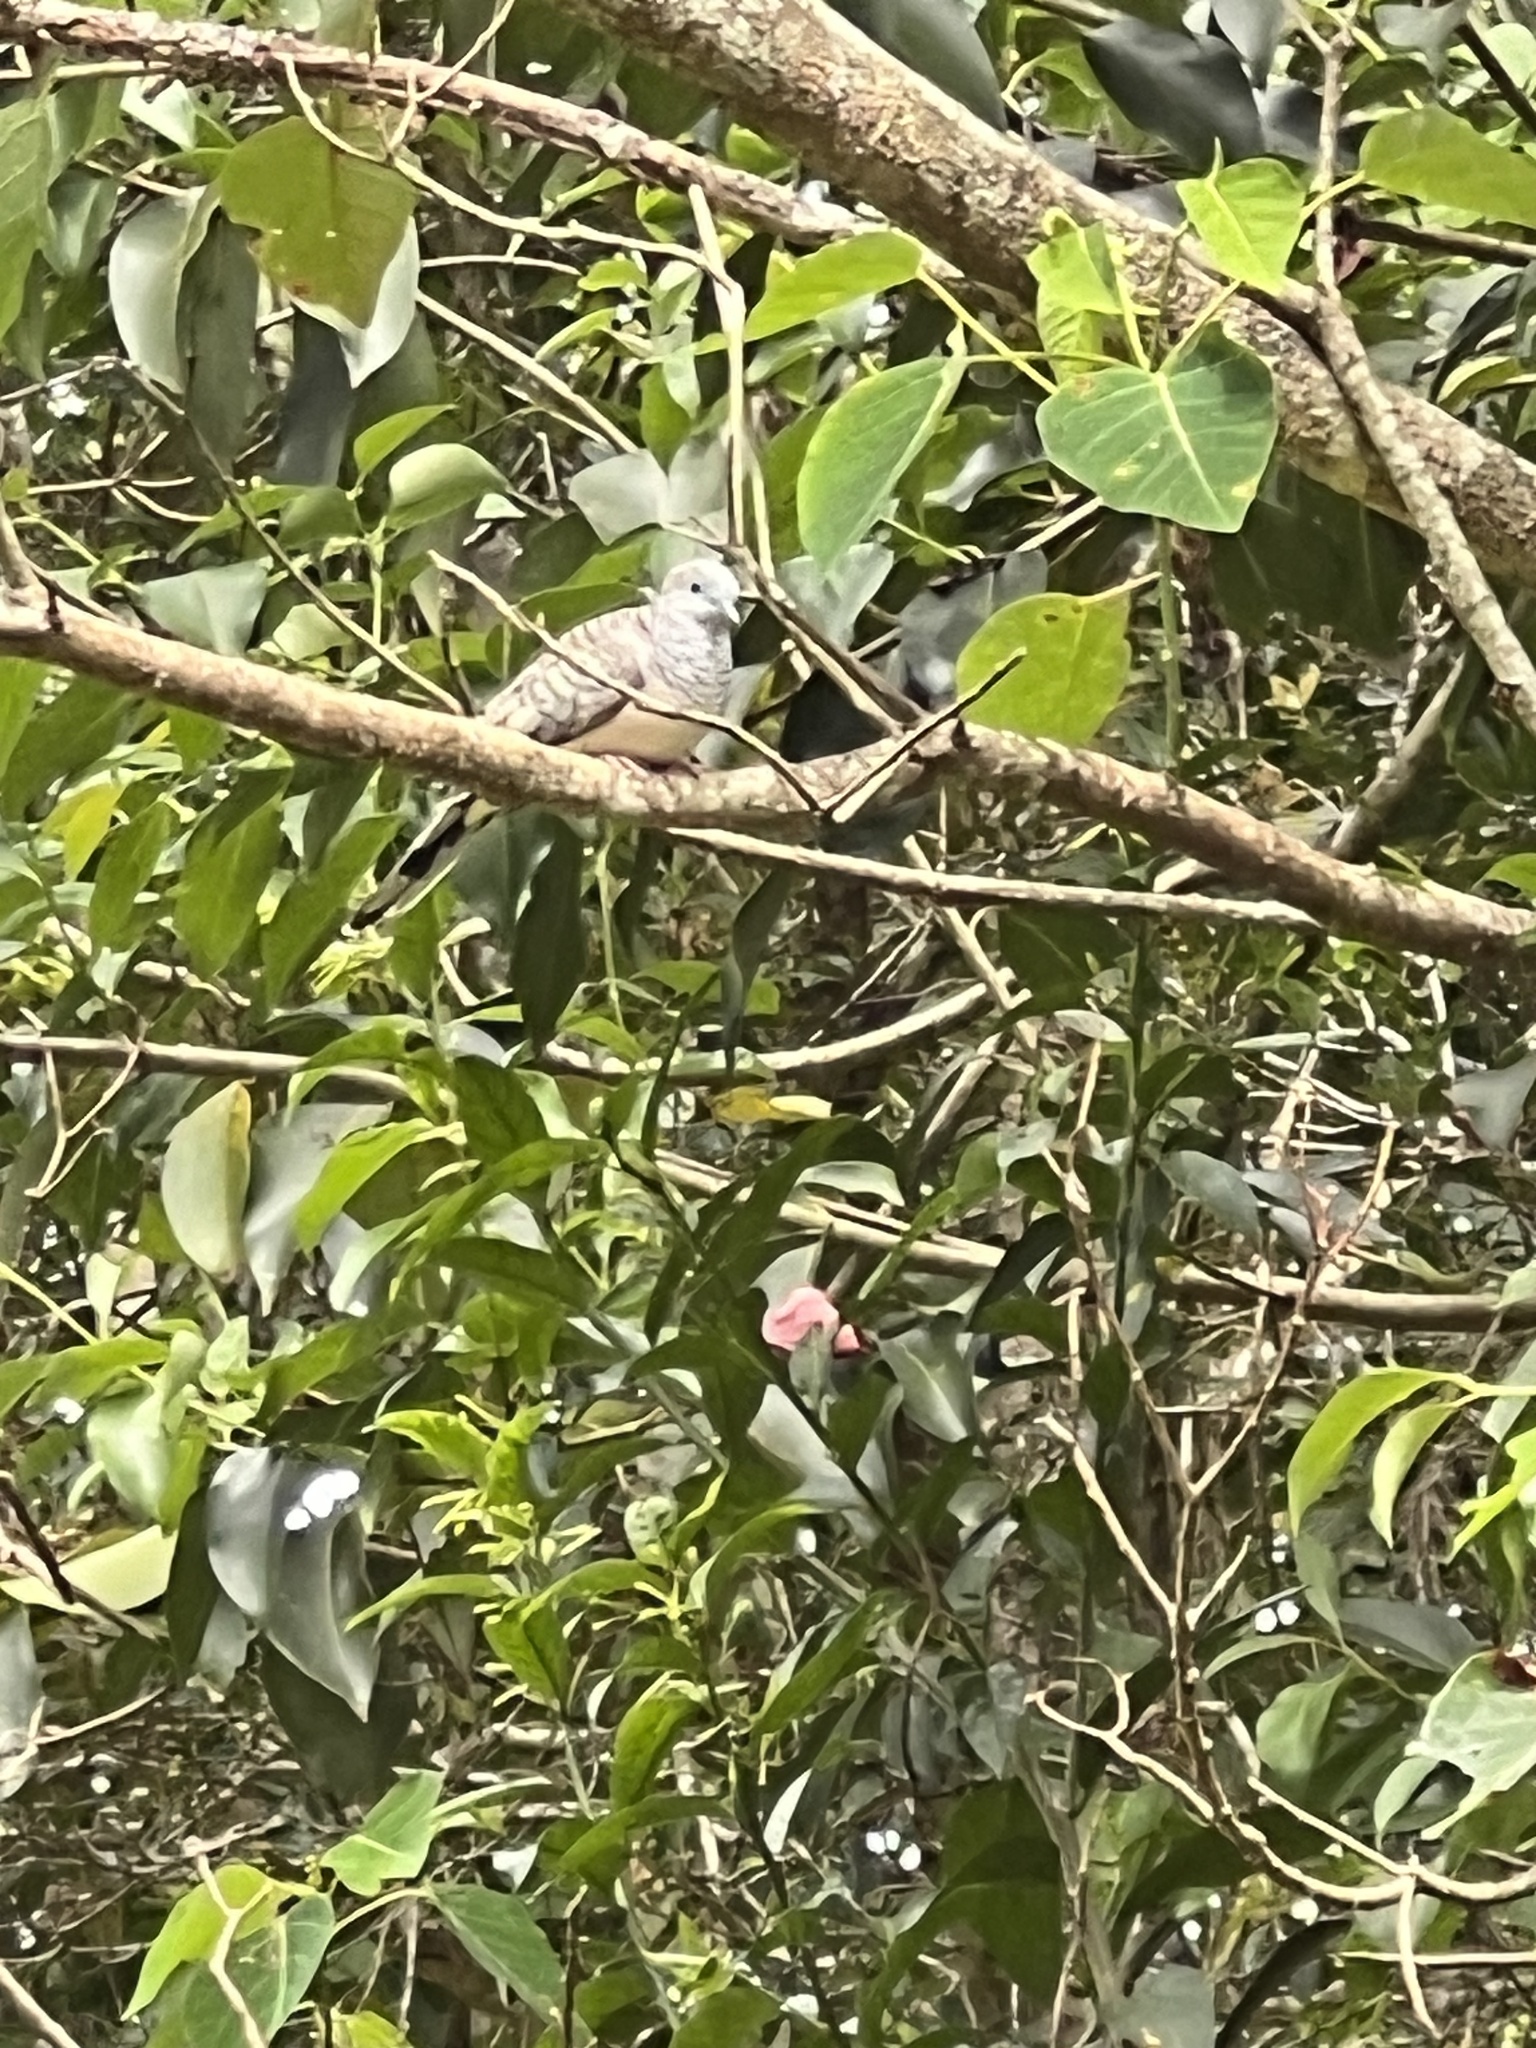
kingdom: Animalia
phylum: Chordata
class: Aves
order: Columbiformes
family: Columbidae
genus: Geopelia
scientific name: Geopelia placida
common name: Peaceful dove
